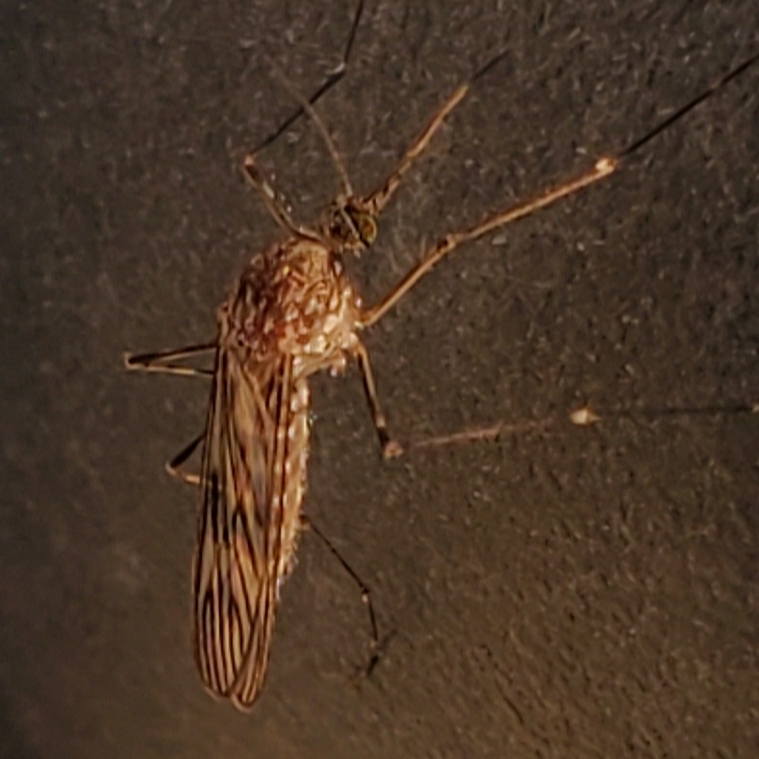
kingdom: Animalia
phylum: Arthropoda
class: Insecta
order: Diptera
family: Culicidae
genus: Culiseta
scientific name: Culiseta incidens
